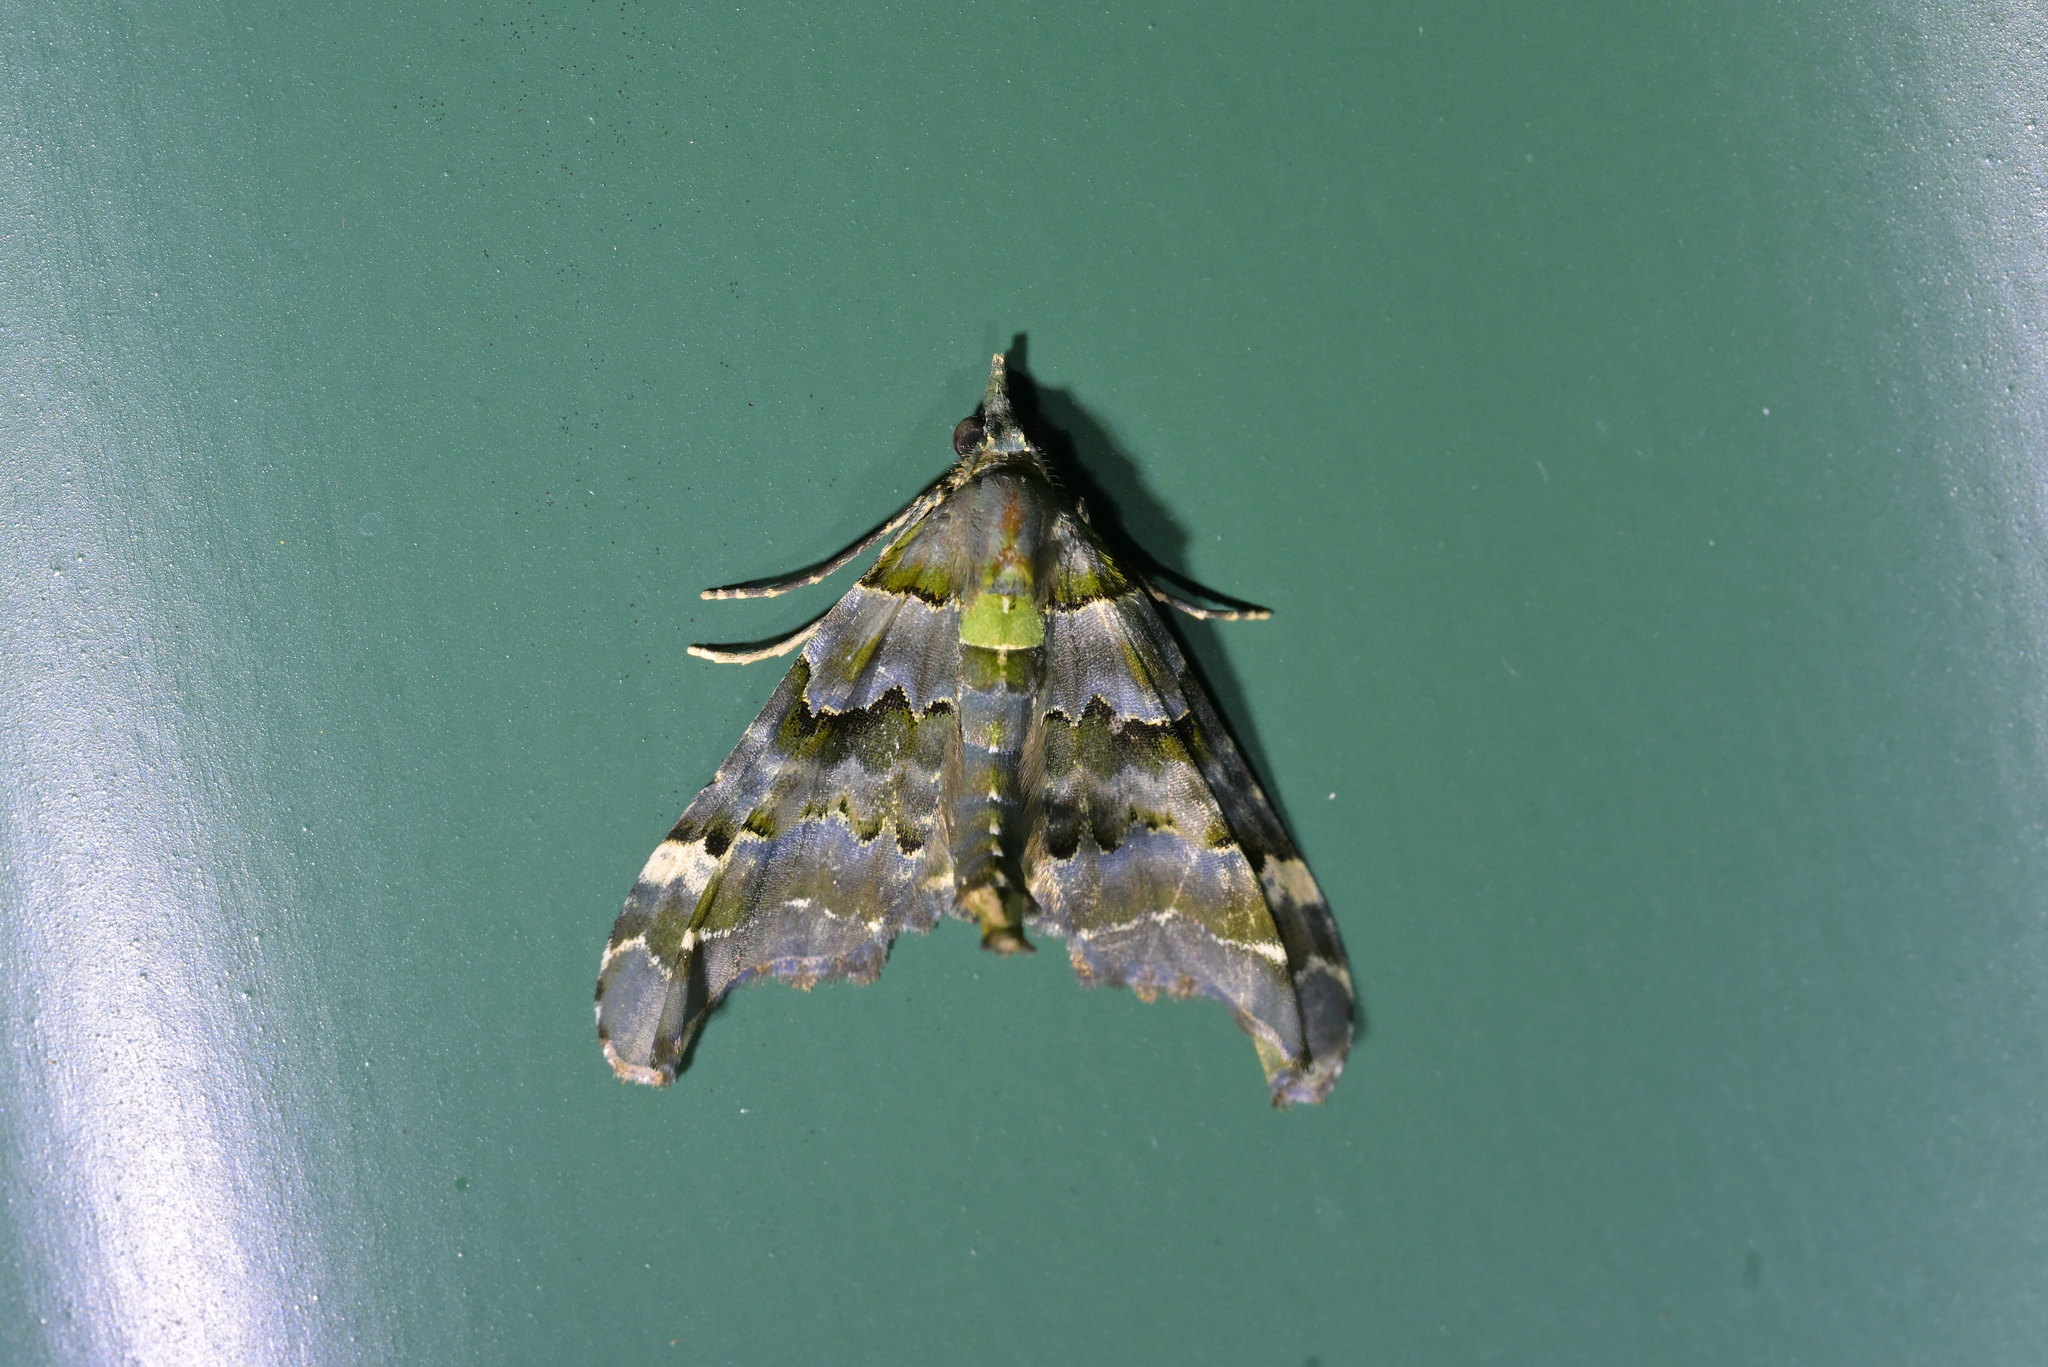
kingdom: Animalia
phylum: Arthropoda
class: Insecta
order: Lepidoptera
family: Geometridae
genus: Elvia
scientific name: Elvia glaucata
